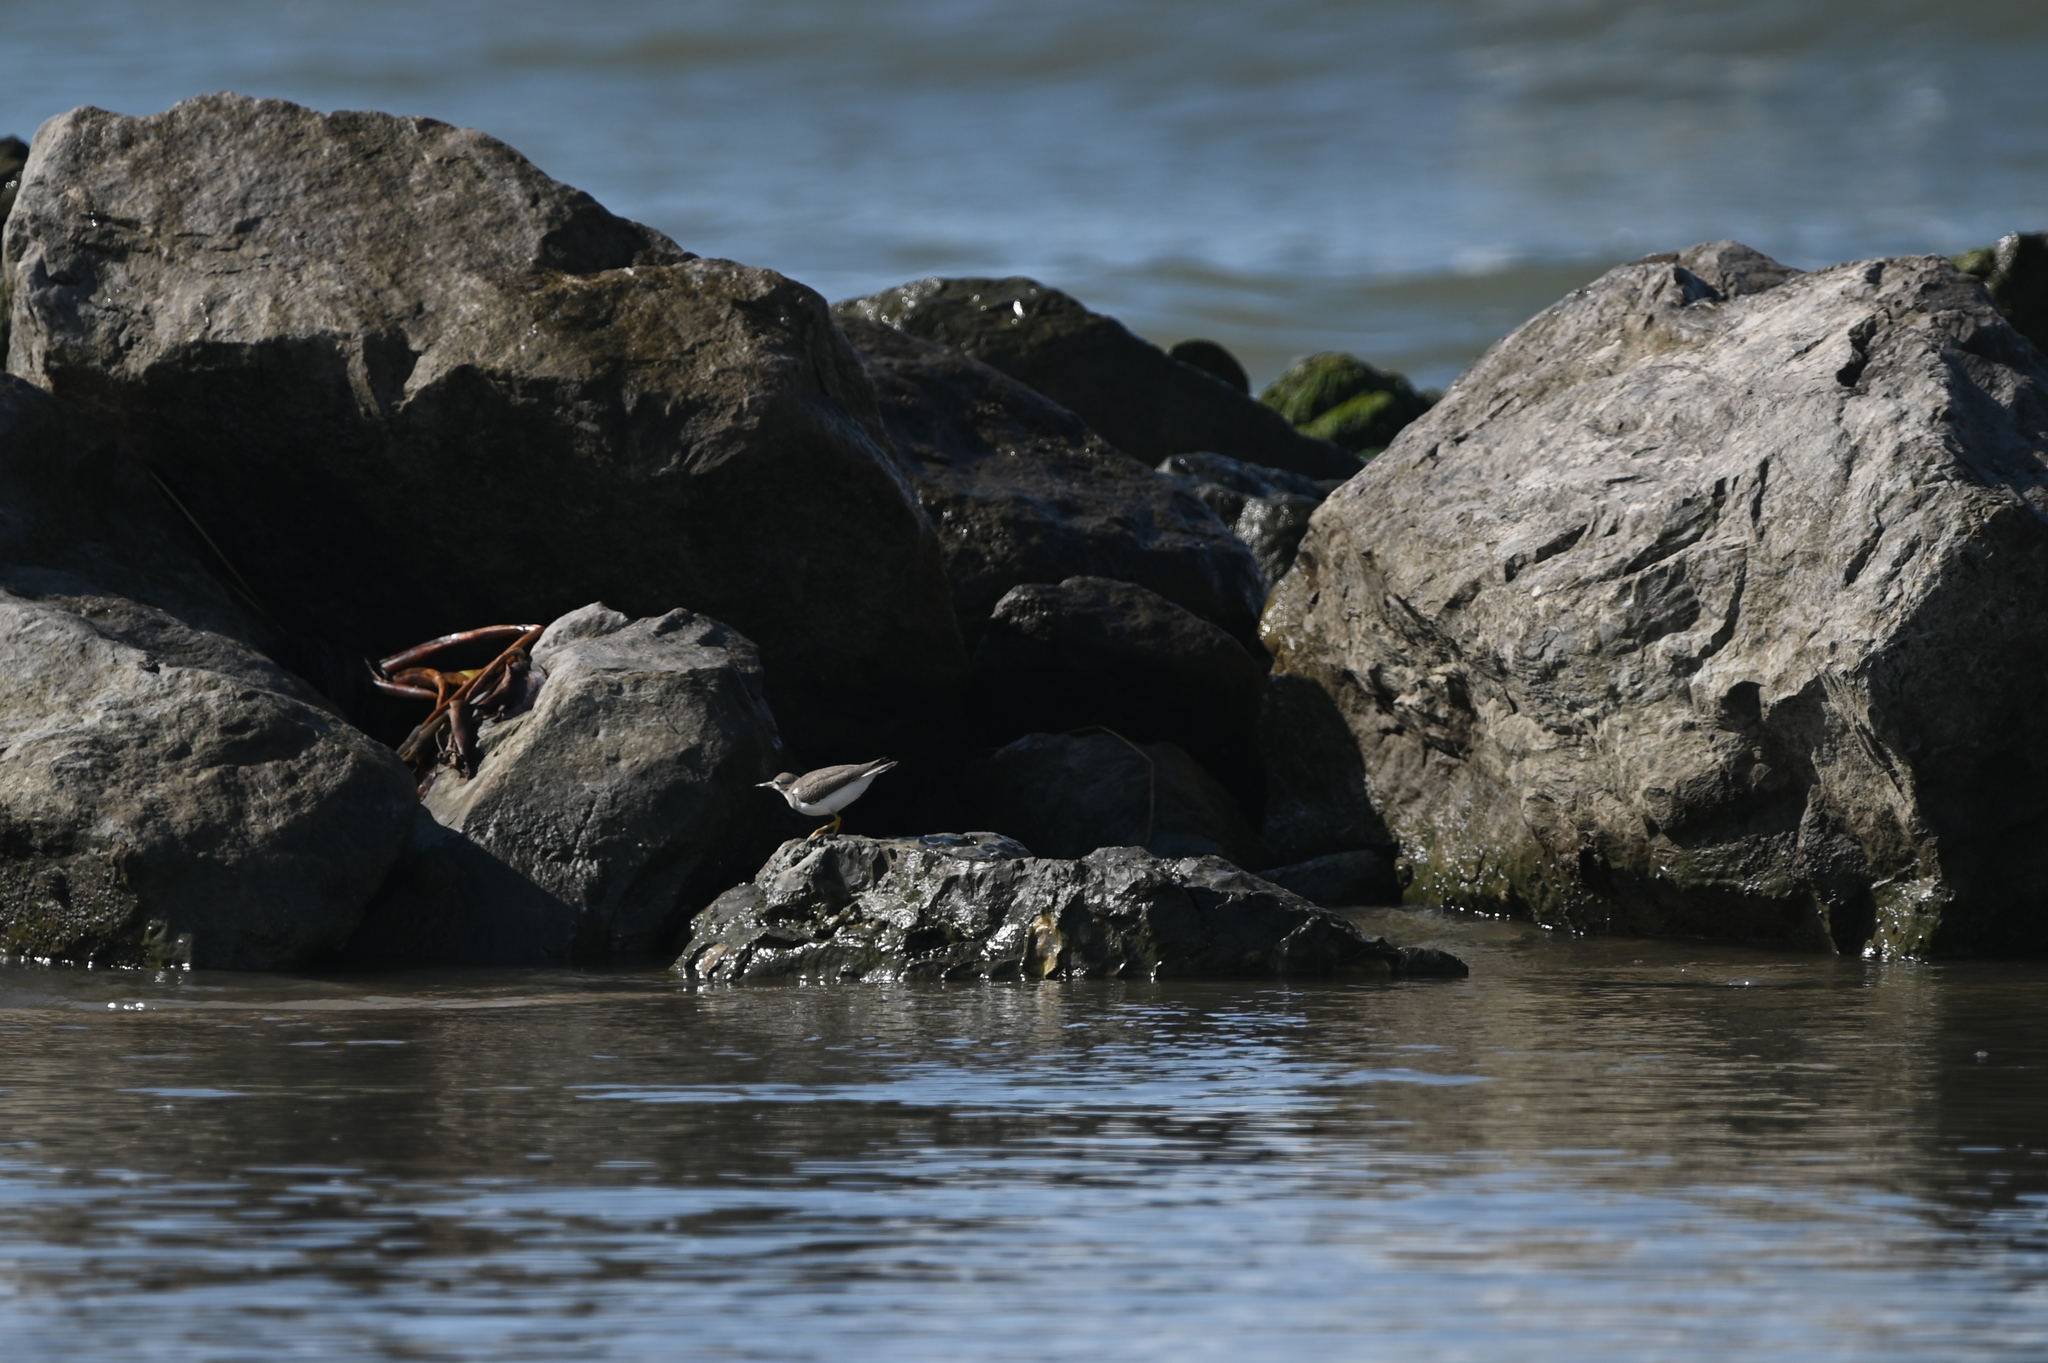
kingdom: Animalia
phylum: Chordata
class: Aves
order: Charadriiformes
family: Scolopacidae
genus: Actitis
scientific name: Actitis macularius
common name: Spotted sandpiper
